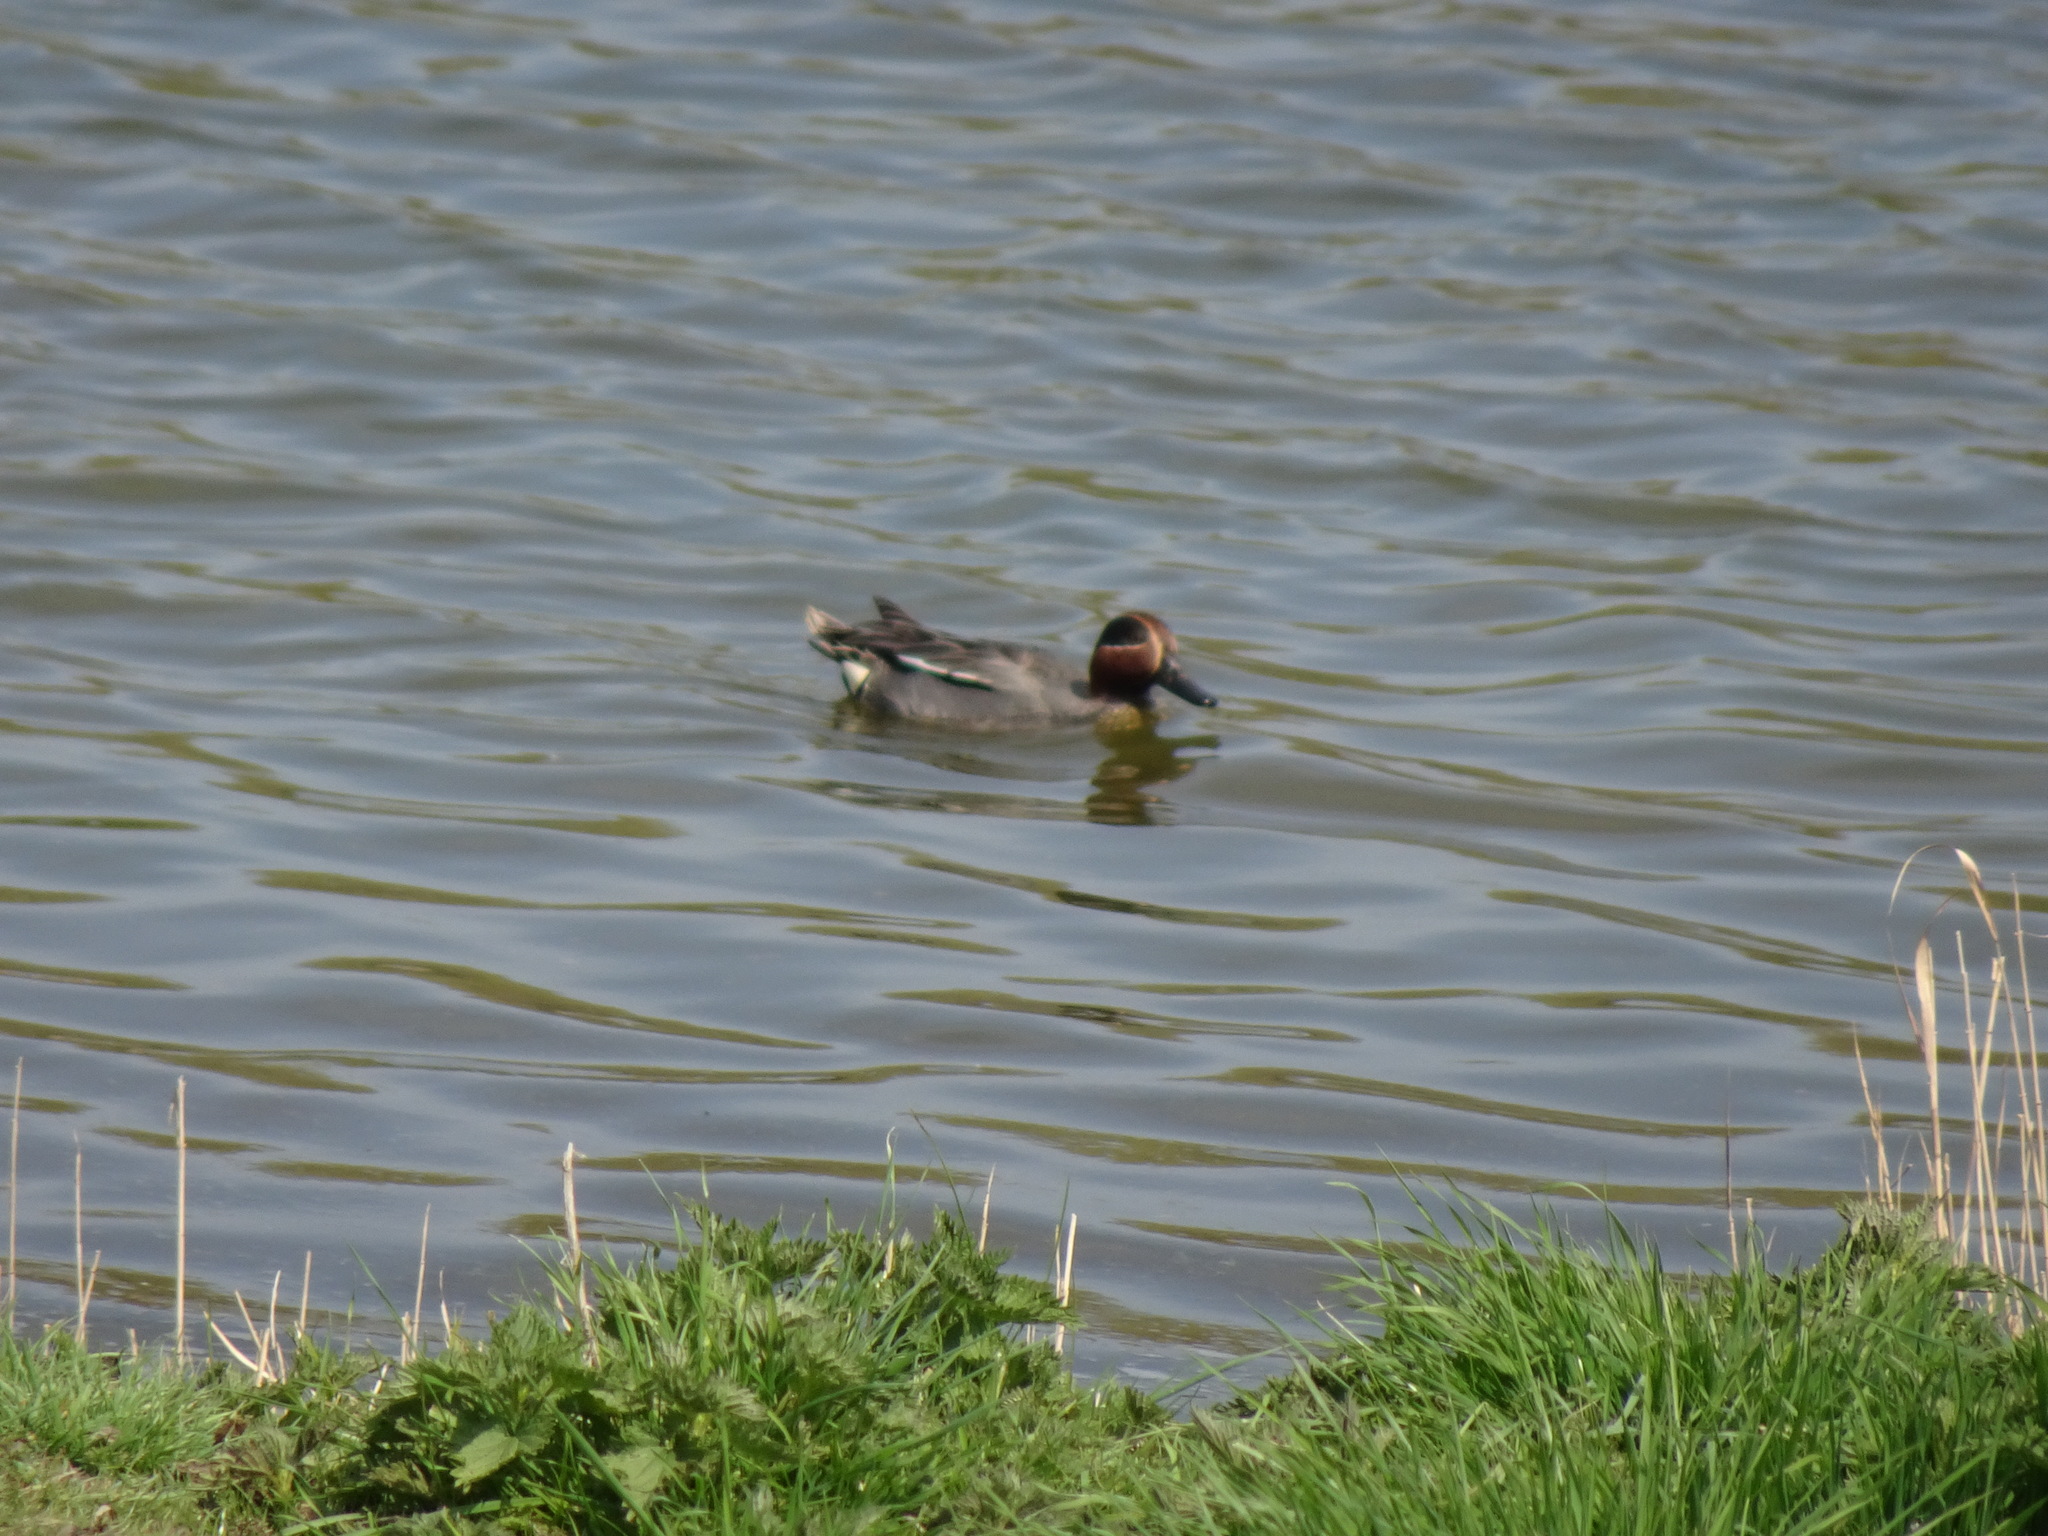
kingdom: Animalia
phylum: Chordata
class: Aves
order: Anseriformes
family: Anatidae
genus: Anas
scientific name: Anas crecca
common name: Eurasian teal
